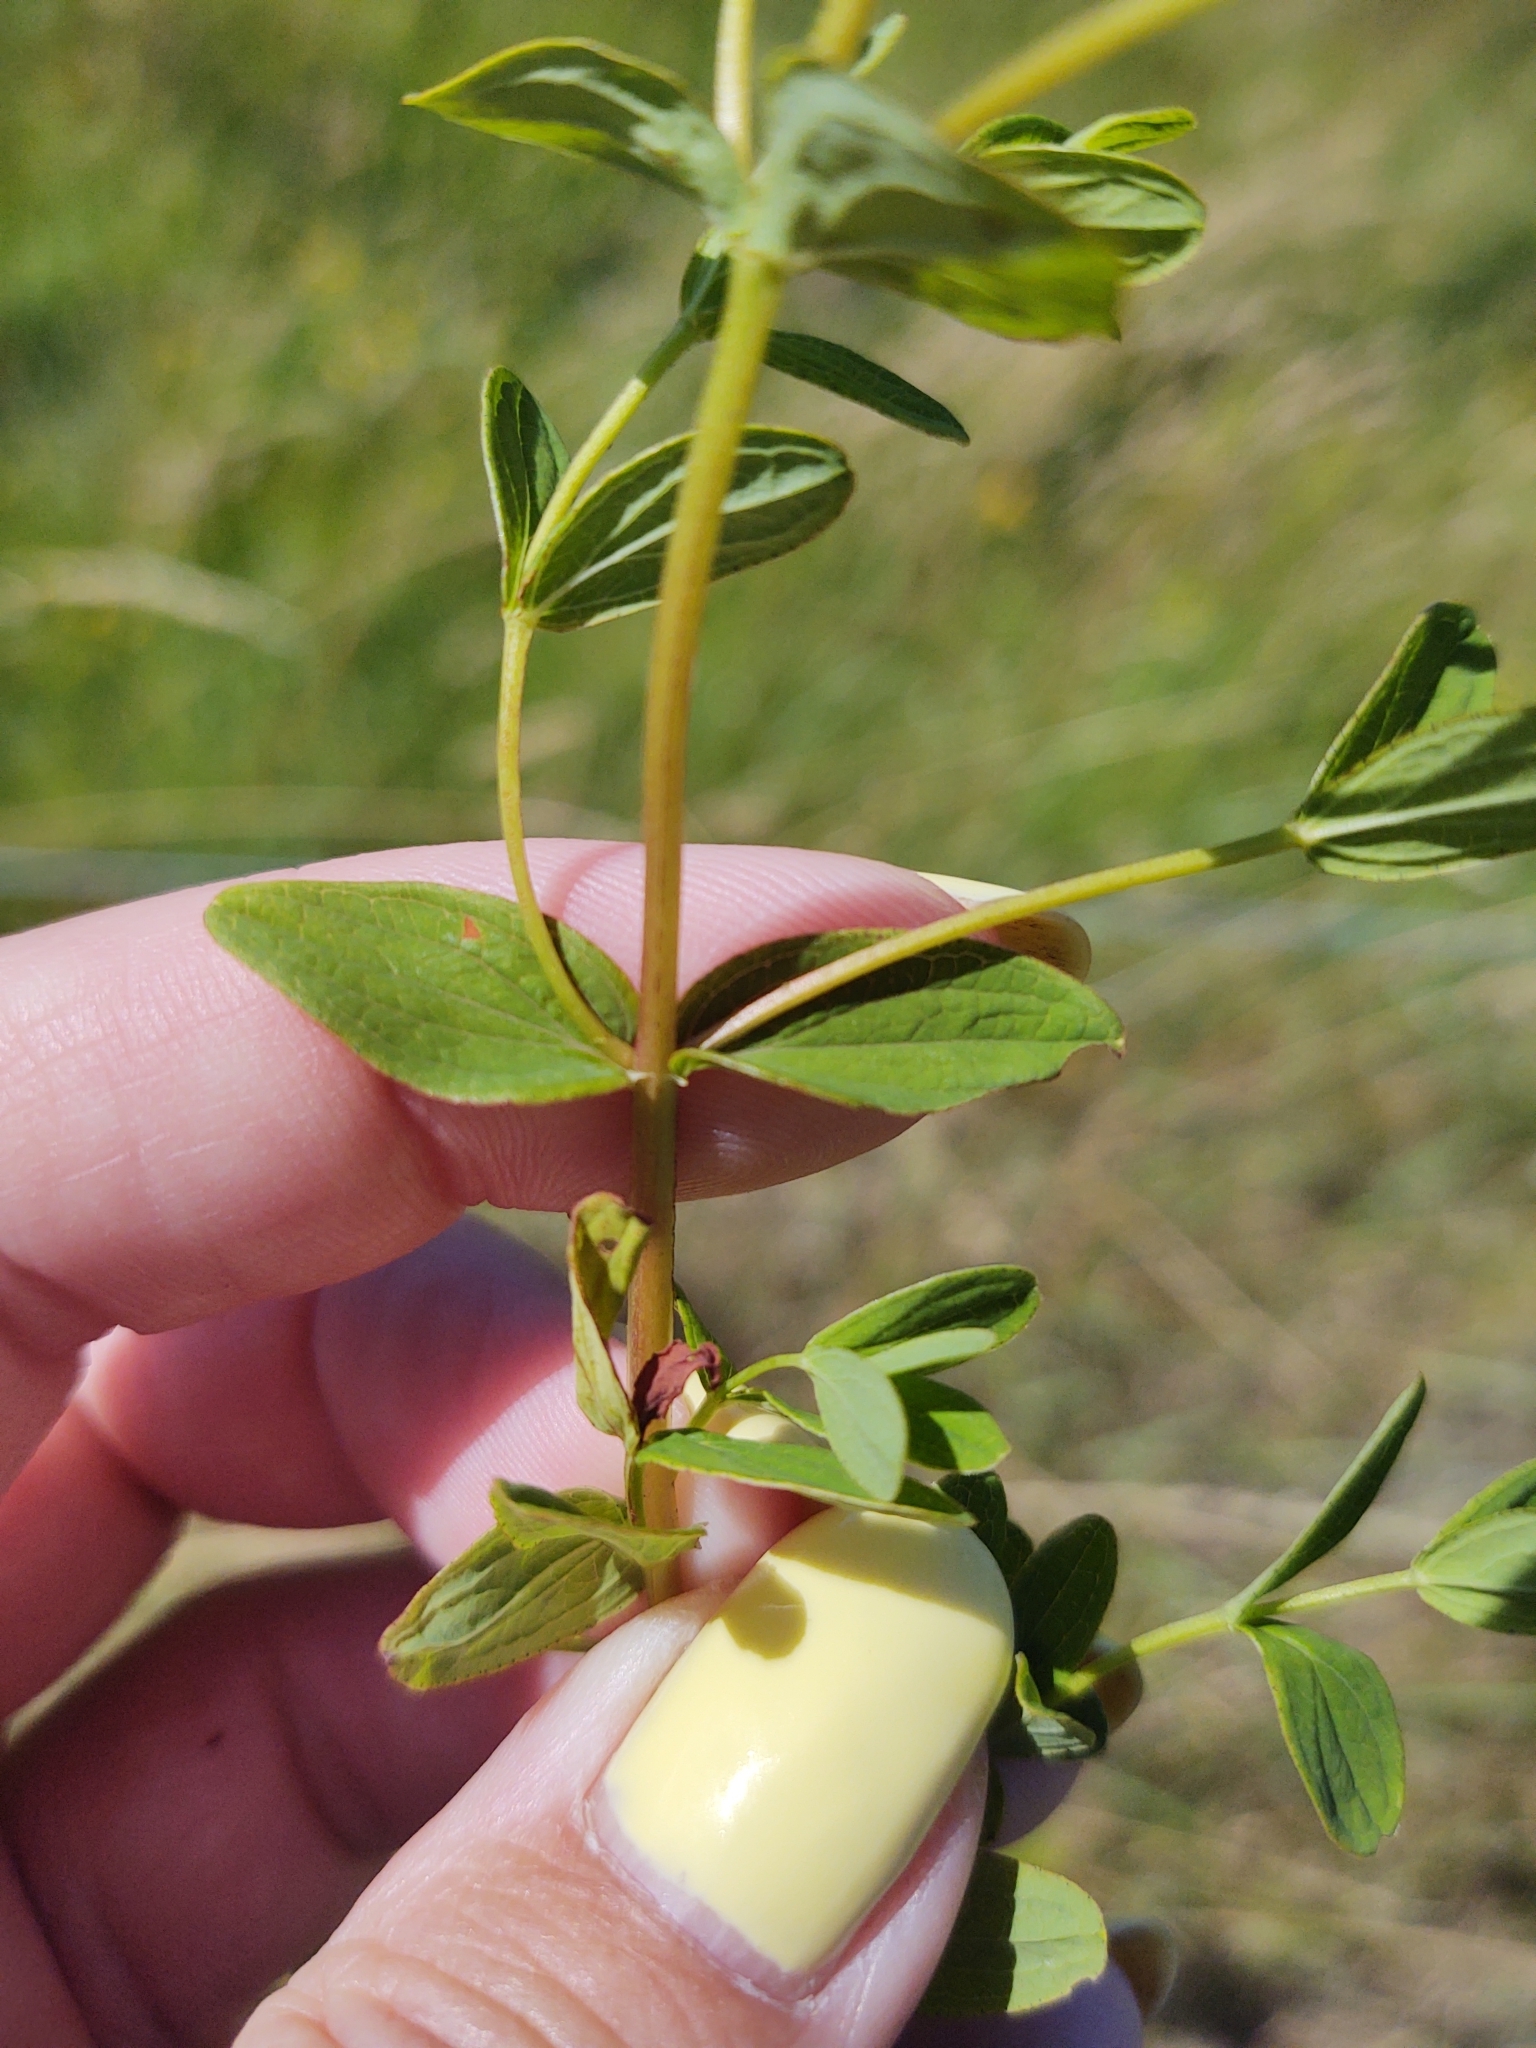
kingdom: Plantae
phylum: Tracheophyta
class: Magnoliopsida
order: Malpighiales
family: Hypericaceae
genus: Hypericum
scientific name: Hypericum maculatum
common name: Imperforate st. john's-wort
